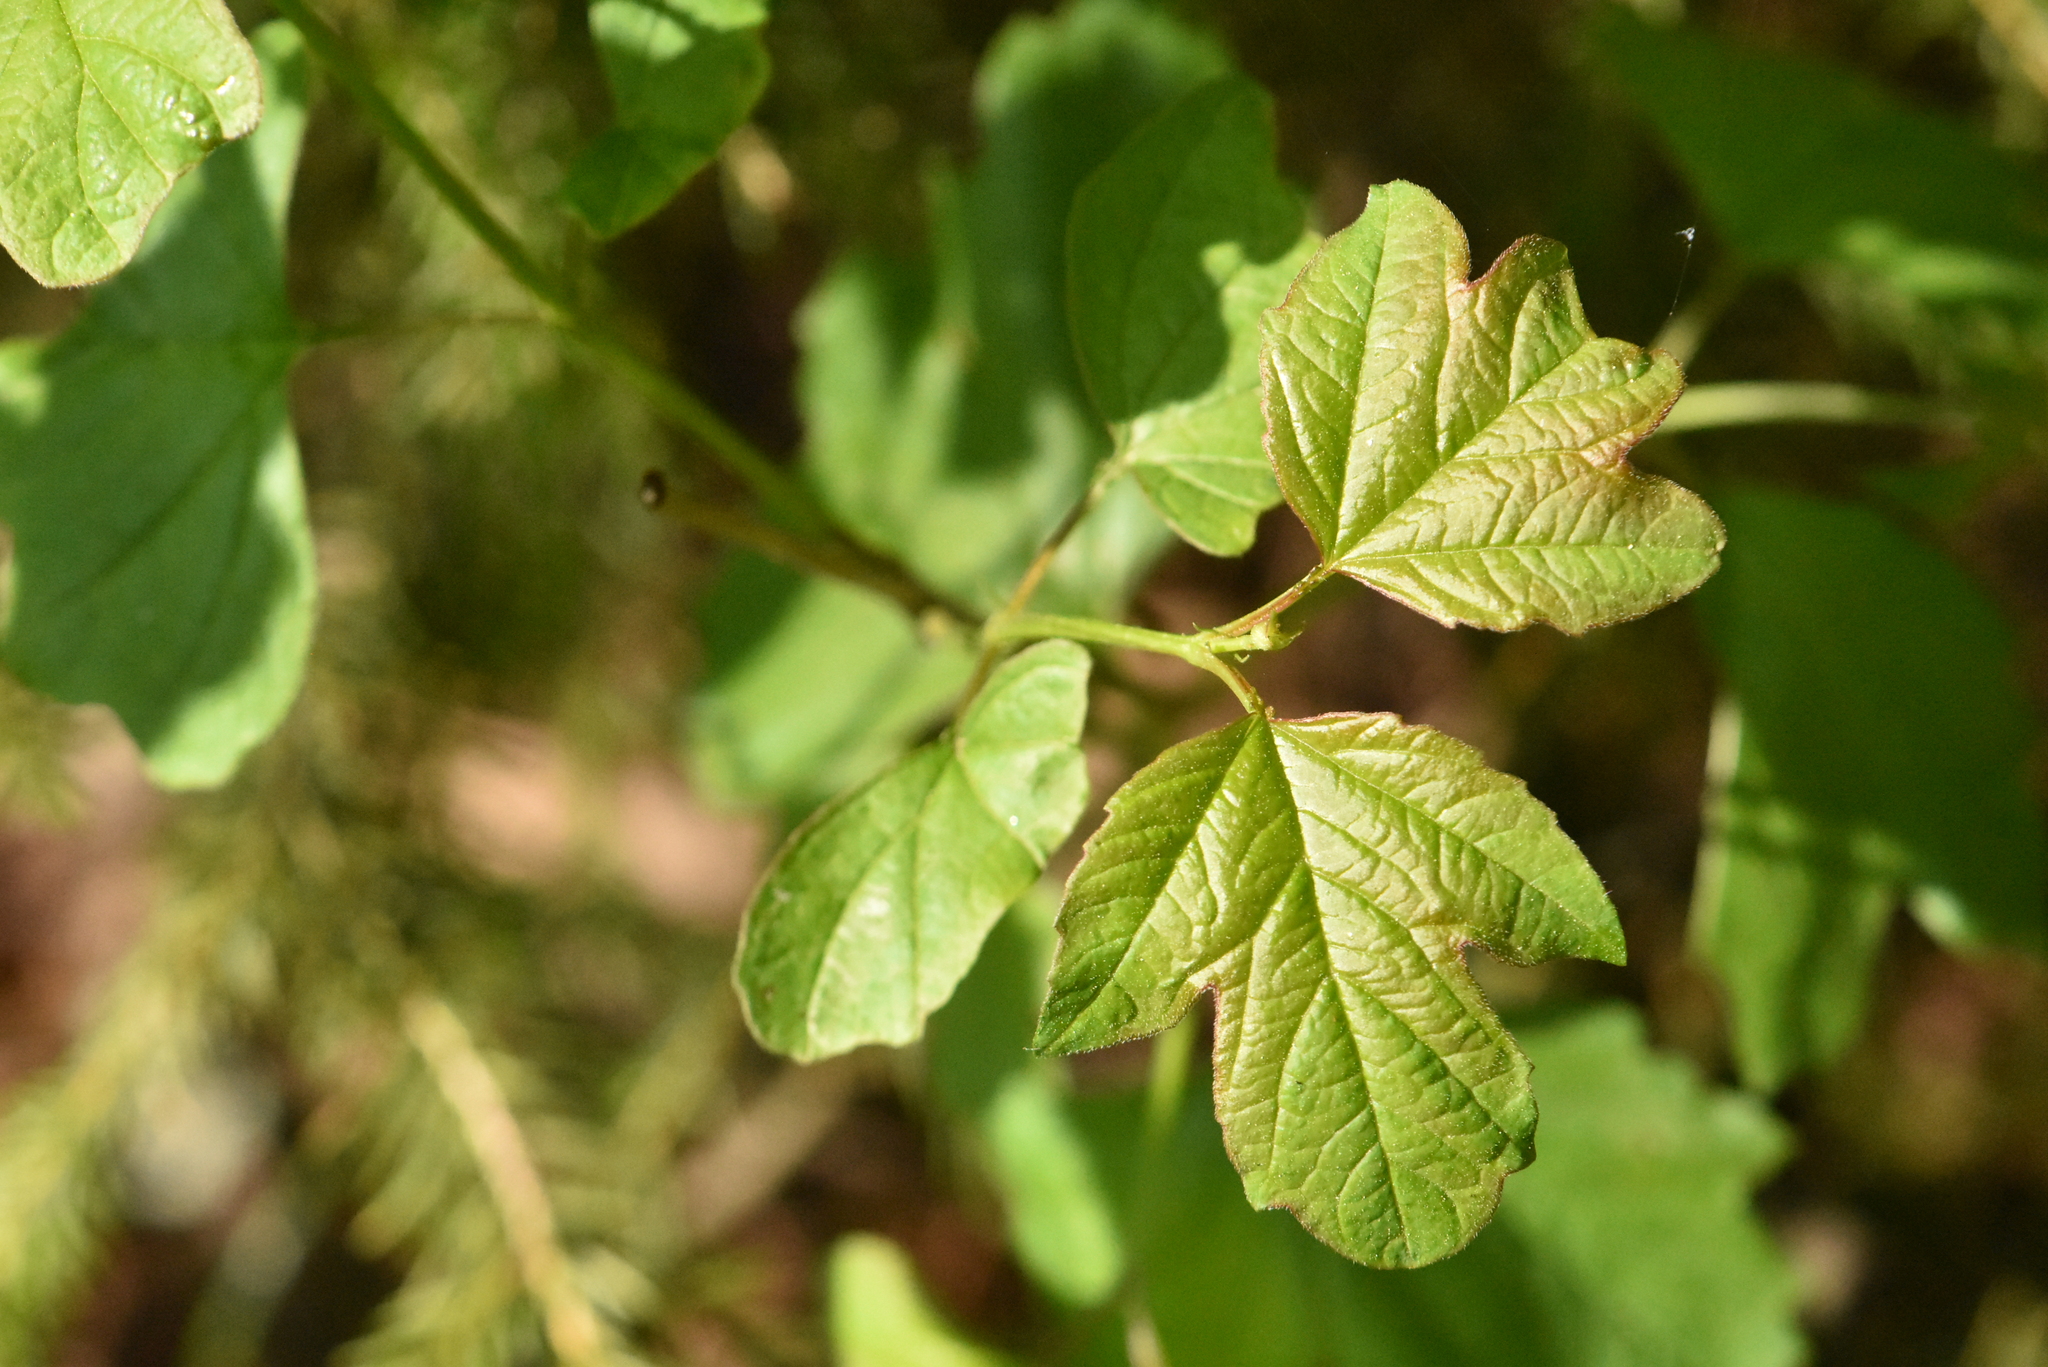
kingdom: Plantae
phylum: Tracheophyta
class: Magnoliopsida
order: Dipsacales
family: Viburnaceae
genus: Viburnum
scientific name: Viburnum opulus
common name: Guelder-rose
